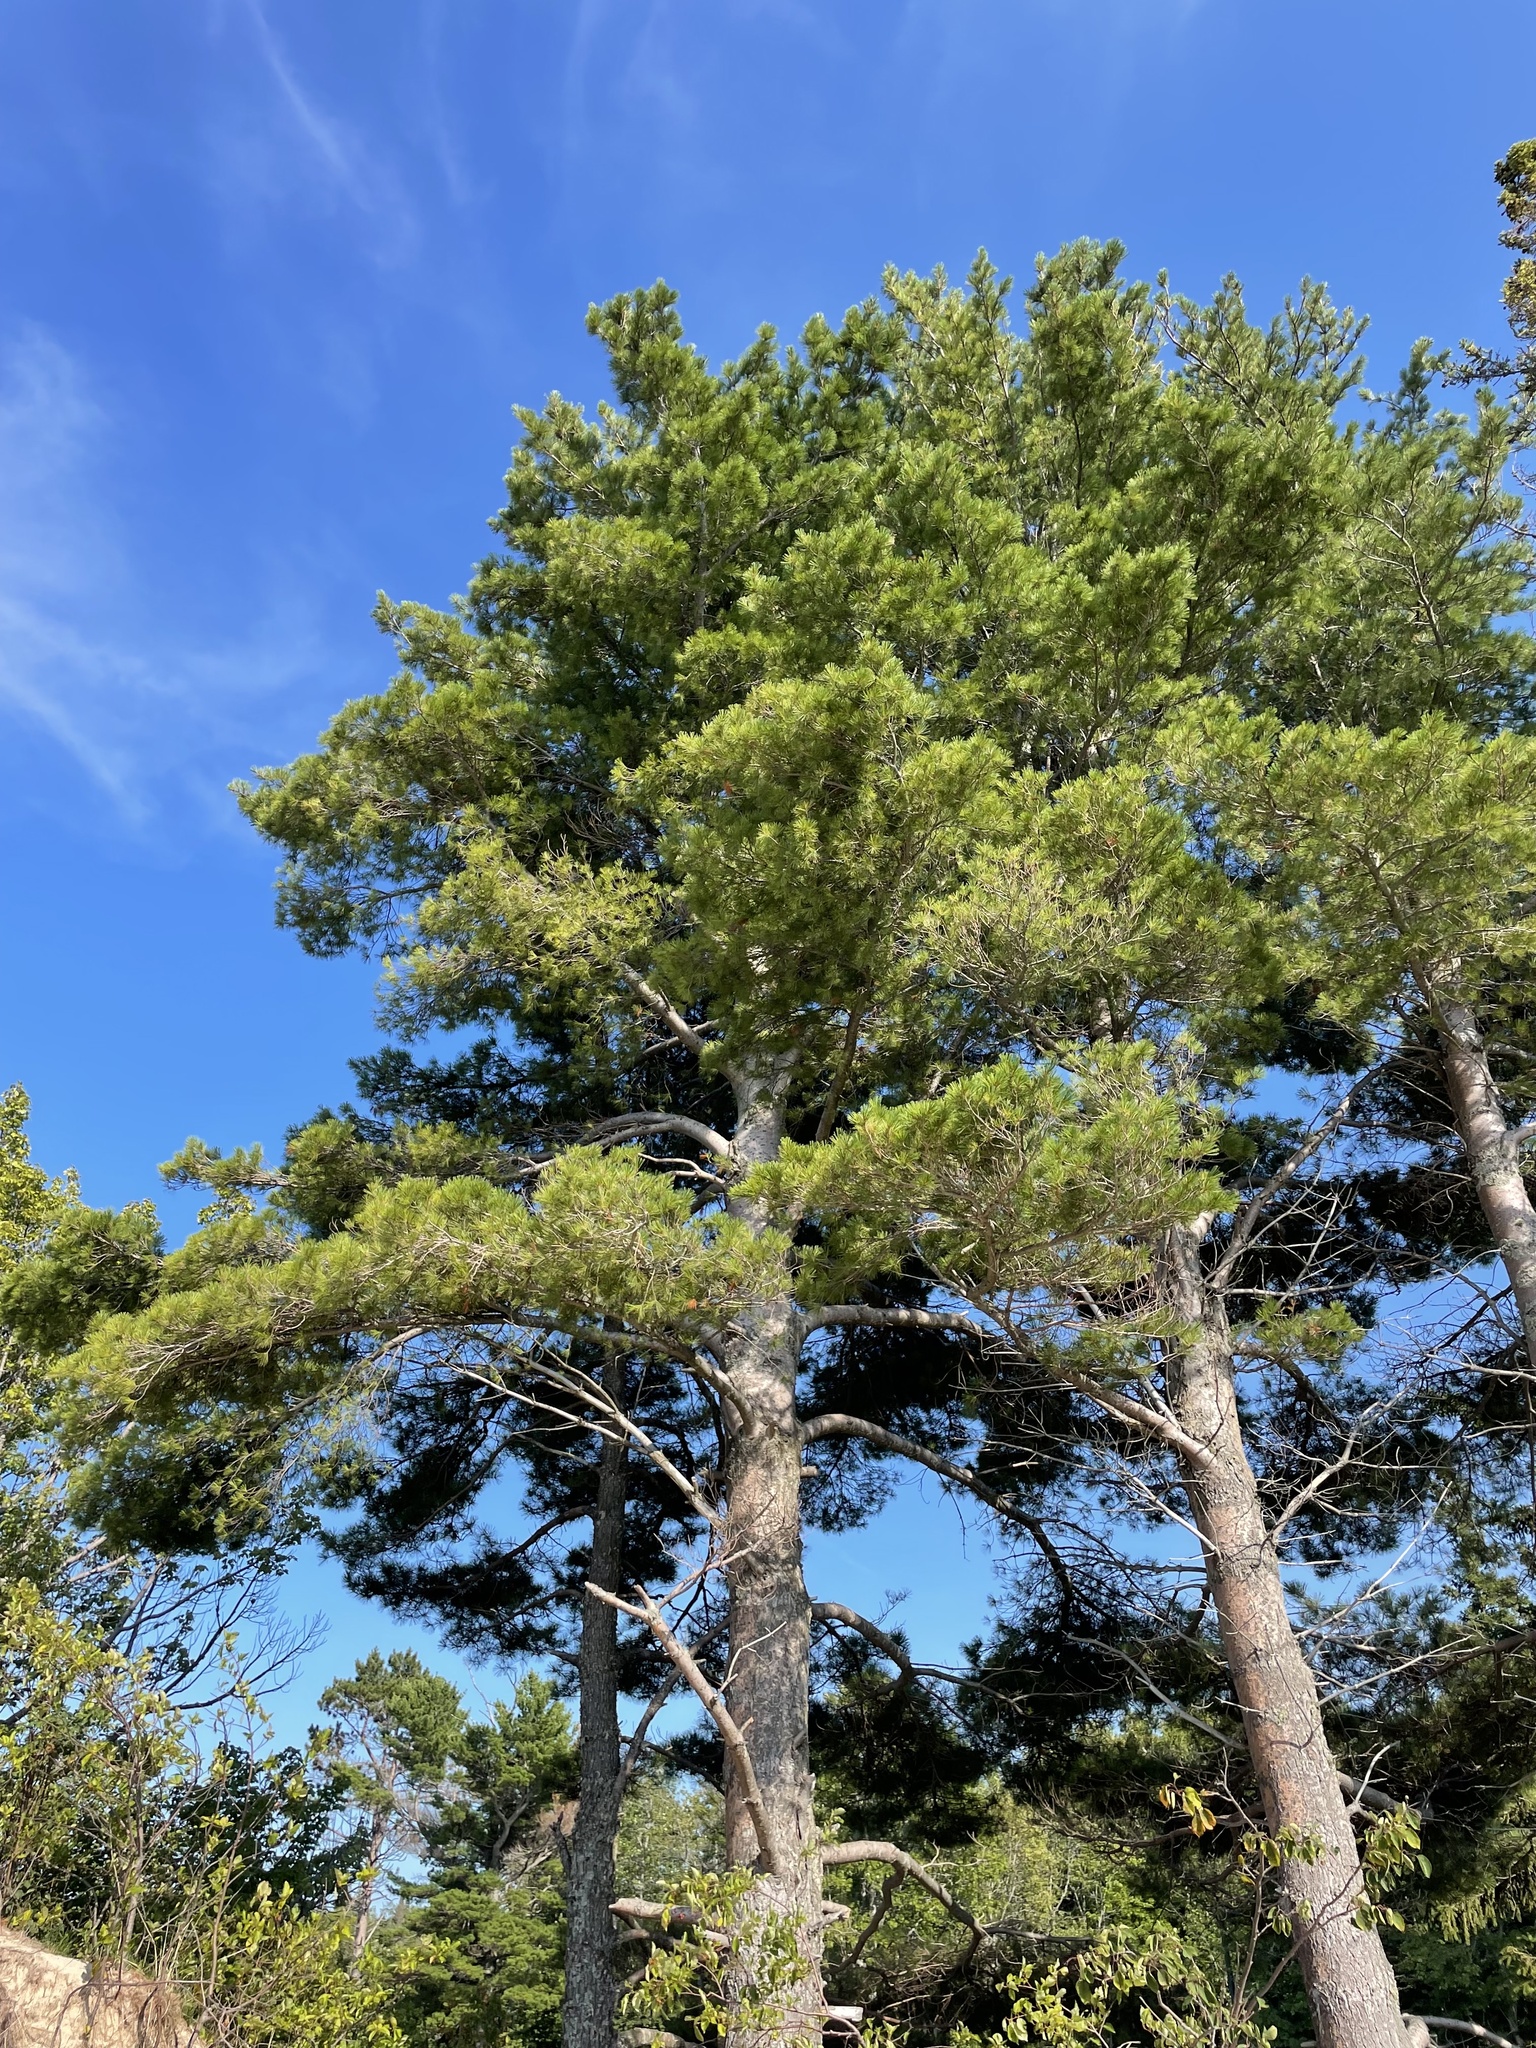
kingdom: Plantae
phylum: Tracheophyta
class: Pinopsida
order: Pinales
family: Pinaceae
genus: Pinus
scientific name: Pinus strobus
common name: Weymouth pine
